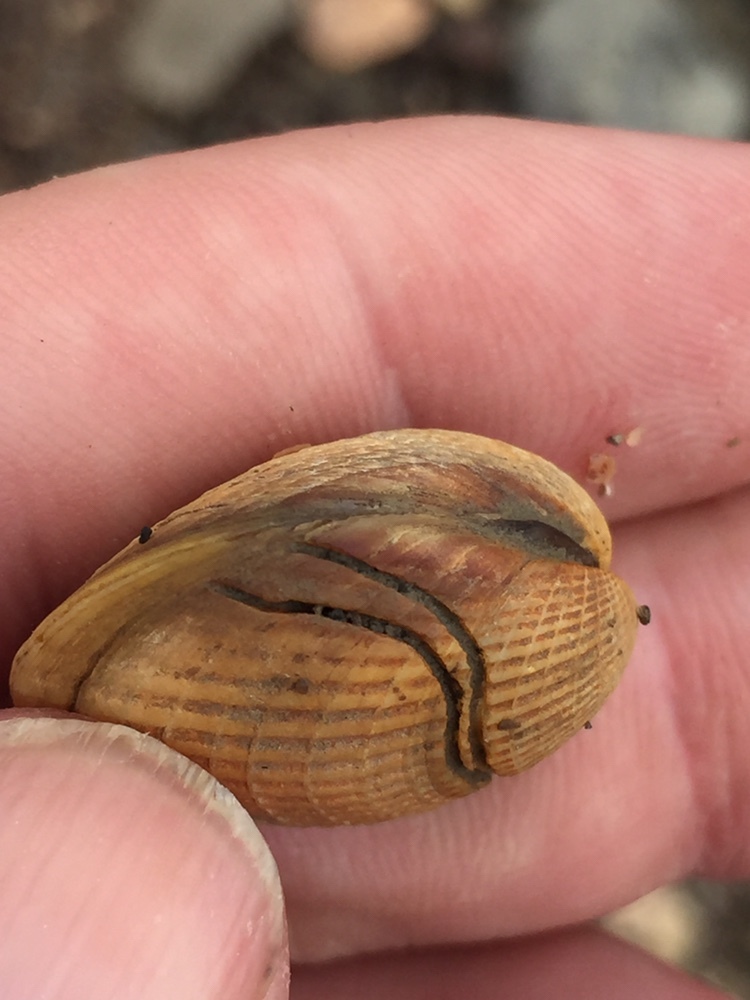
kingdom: Animalia
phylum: Annelida
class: Polychaeta
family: Spionidae
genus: Boccardia
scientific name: Boccardia acus
